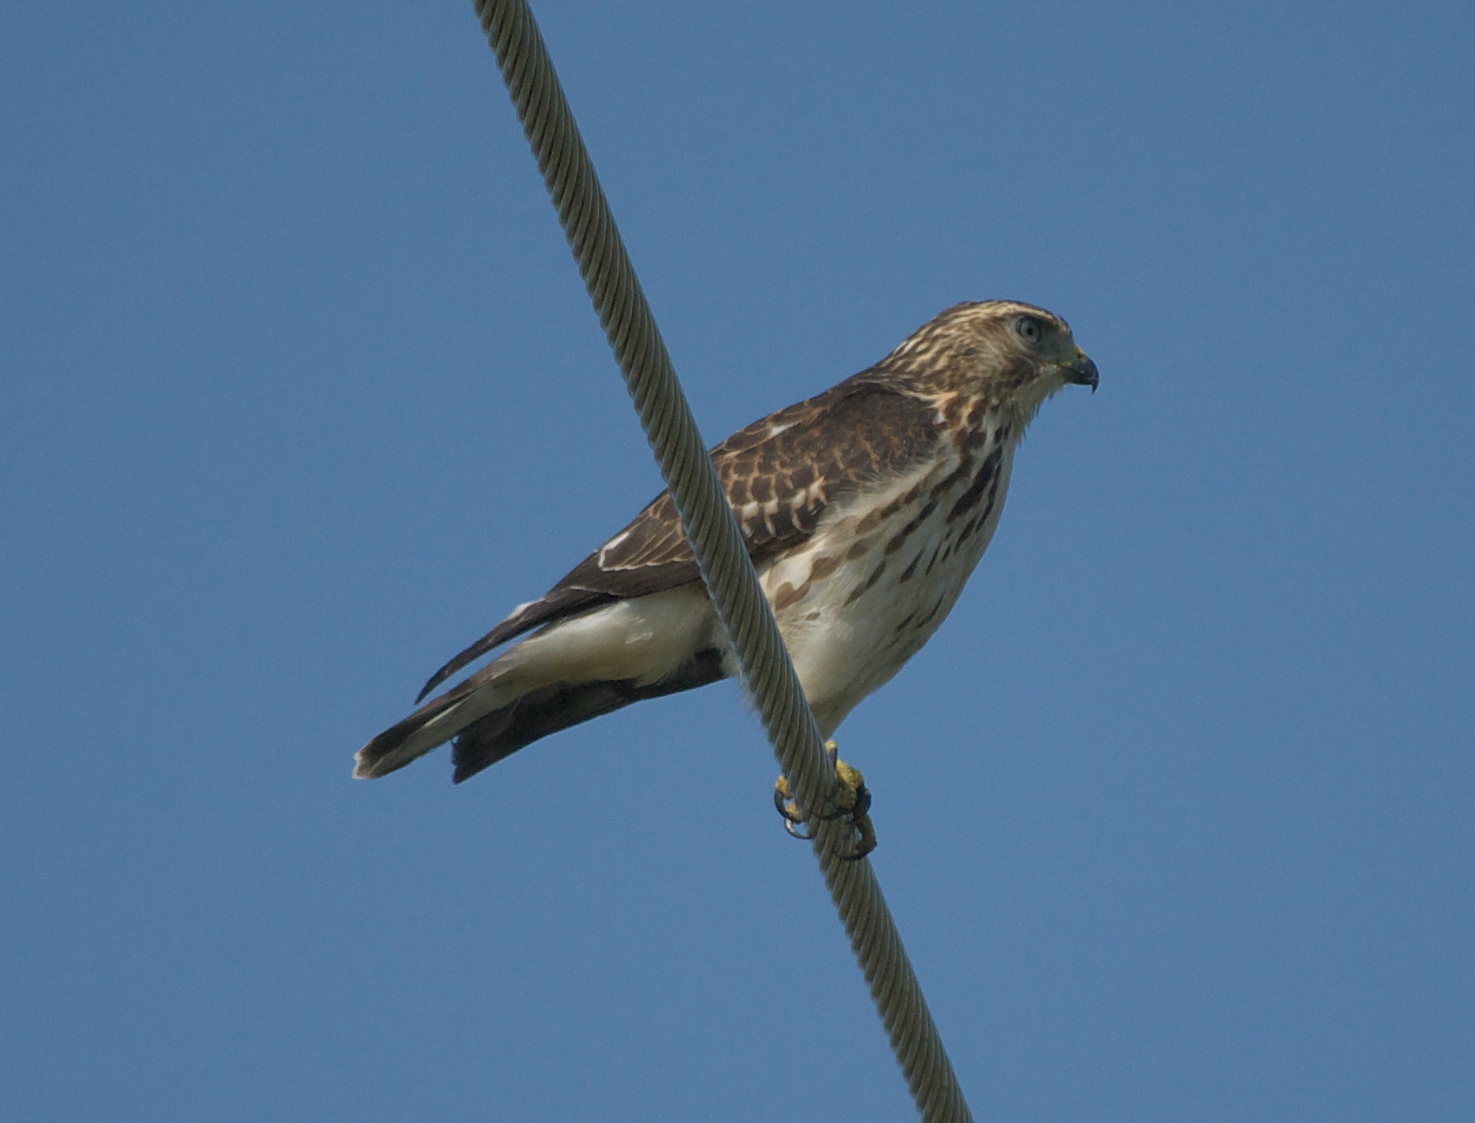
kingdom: Animalia
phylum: Chordata
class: Aves
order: Accipitriformes
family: Accipitridae
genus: Buteo
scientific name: Buteo platypterus
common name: Broad-winged hawk
